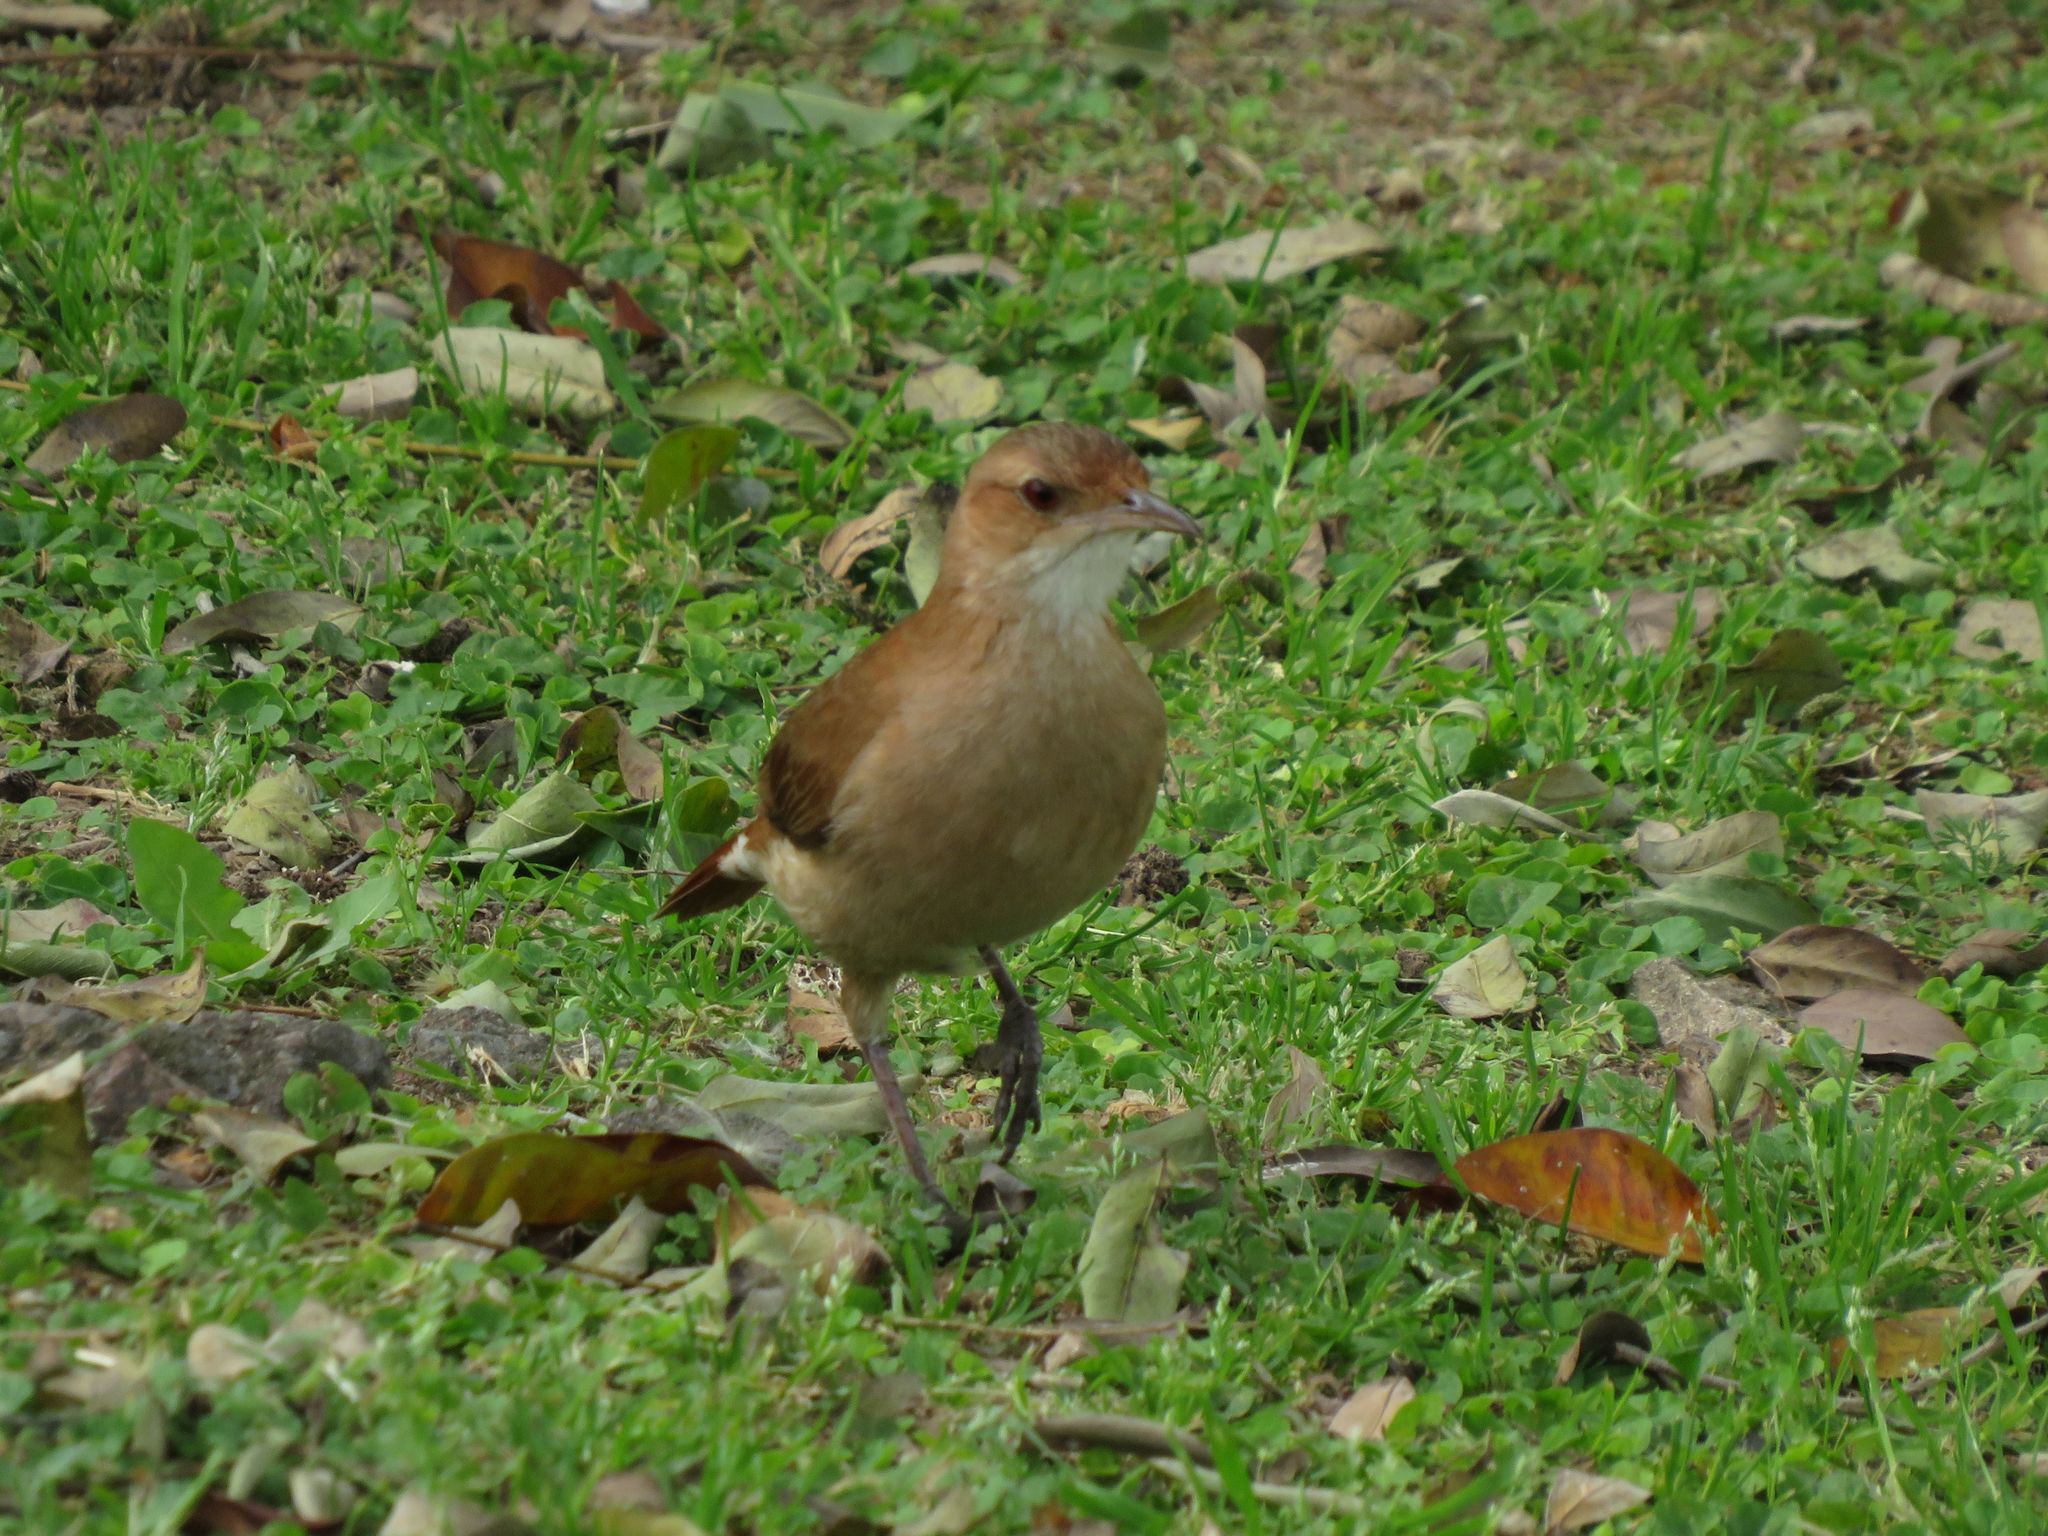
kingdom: Animalia
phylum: Chordata
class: Aves
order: Passeriformes
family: Furnariidae
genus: Furnarius
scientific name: Furnarius rufus
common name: Rufous hornero
